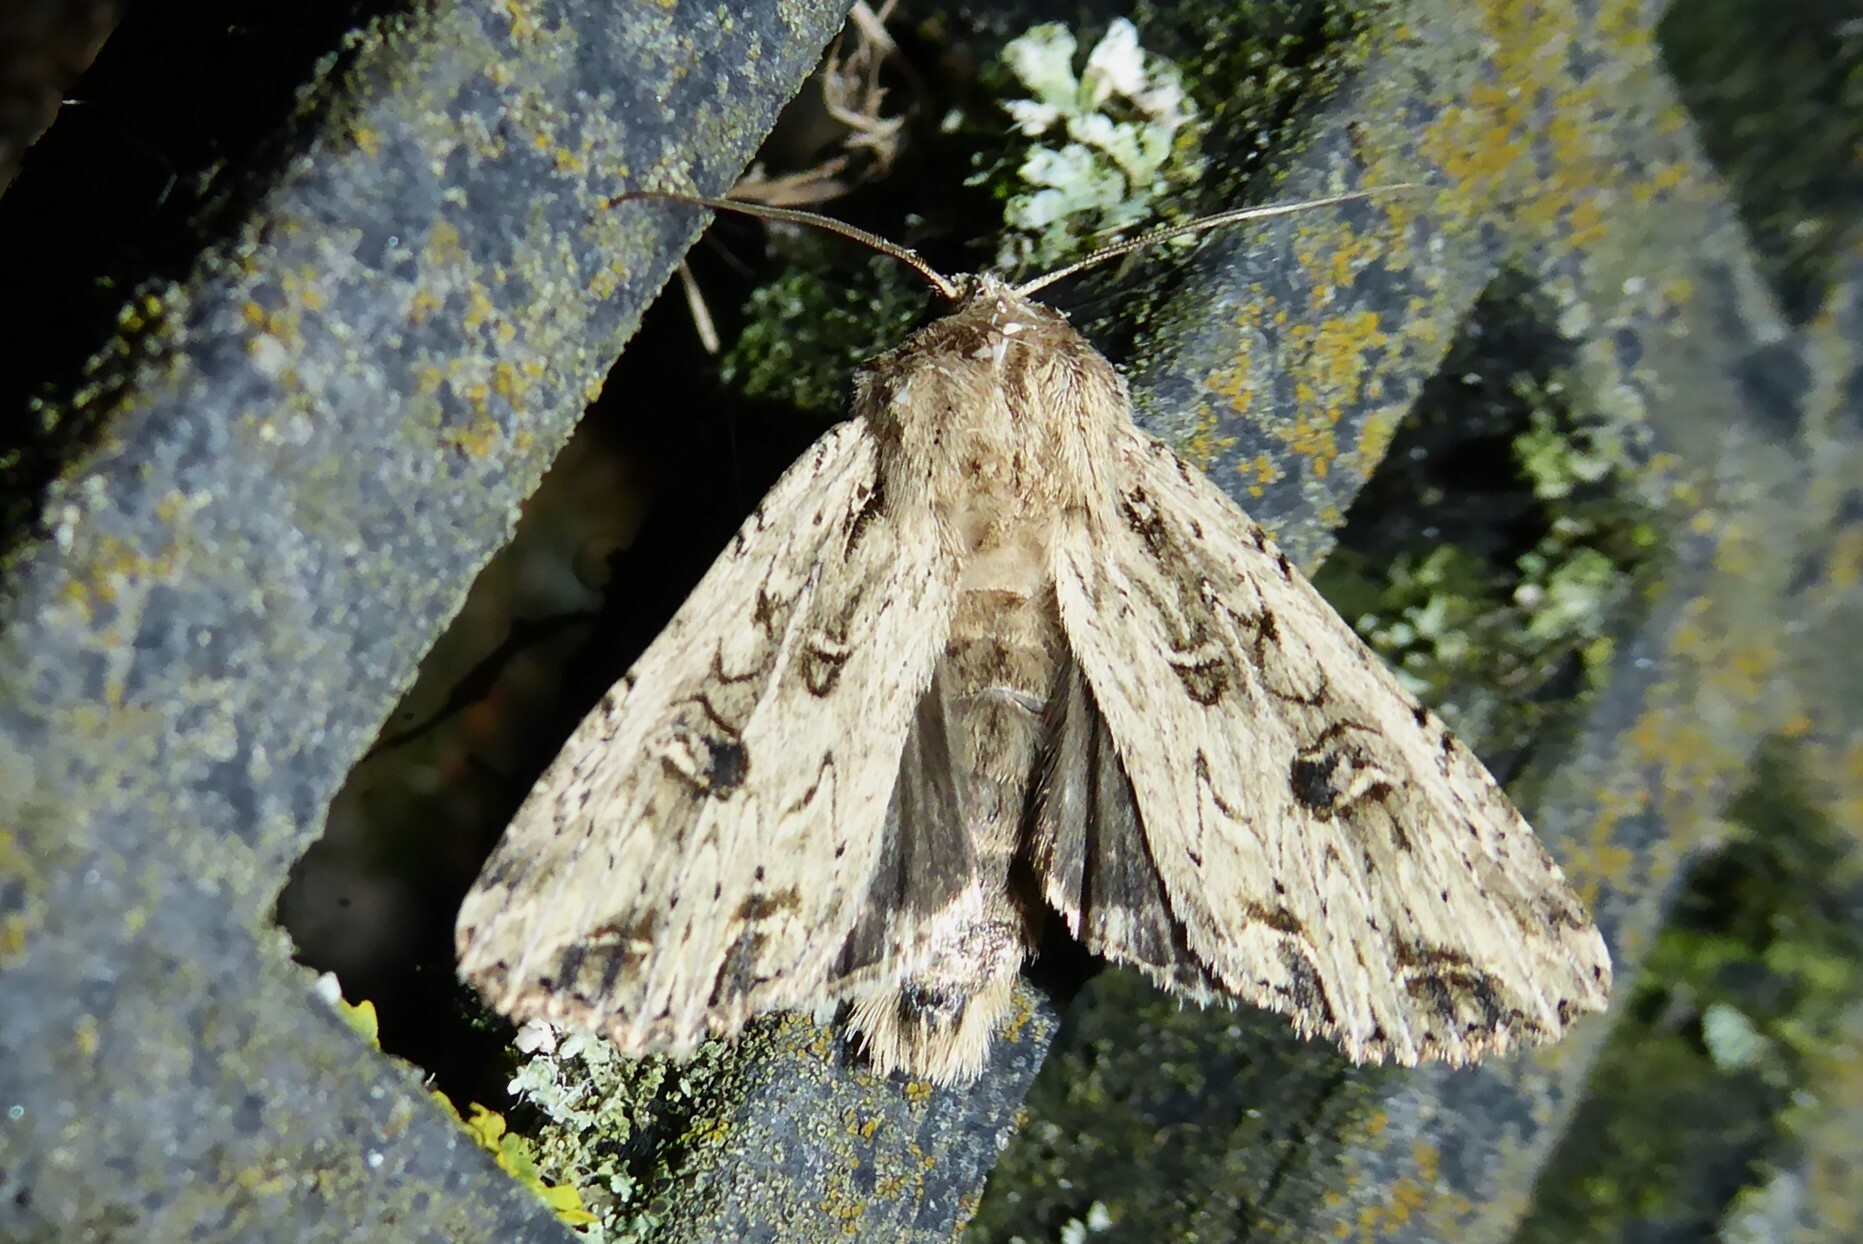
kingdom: Animalia
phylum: Arthropoda
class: Insecta
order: Lepidoptera
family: Noctuidae
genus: Ichneutica
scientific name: Ichneutica lignana
